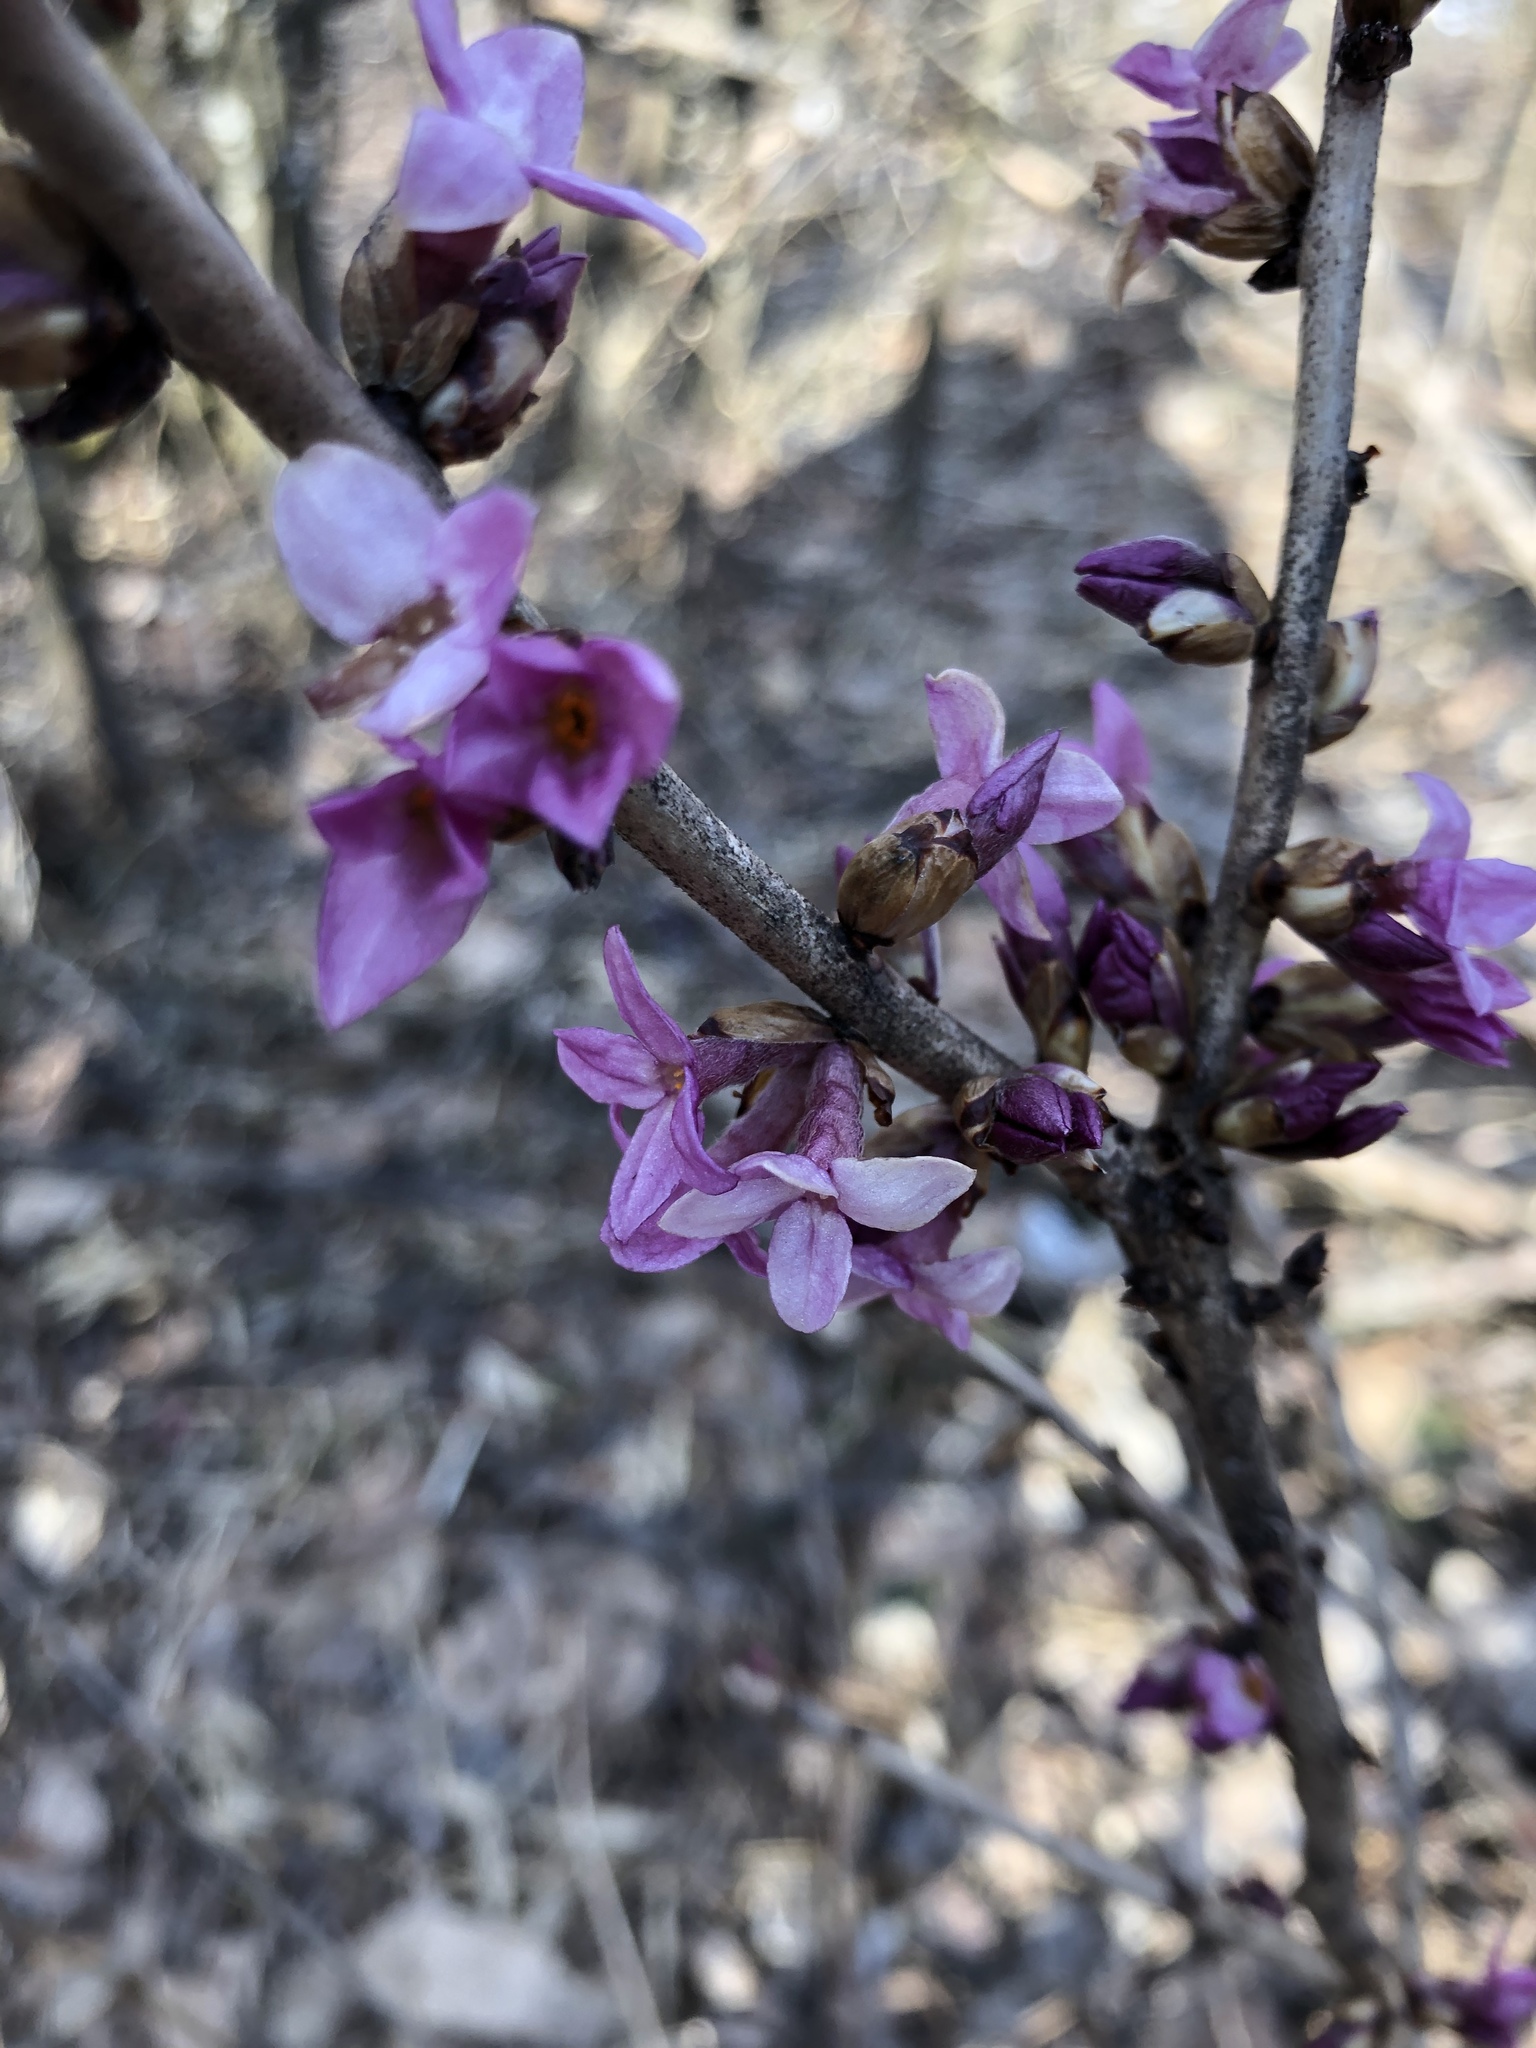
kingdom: Plantae
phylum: Tracheophyta
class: Magnoliopsida
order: Malvales
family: Thymelaeaceae
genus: Daphne
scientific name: Daphne mezereum
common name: Mezereon
